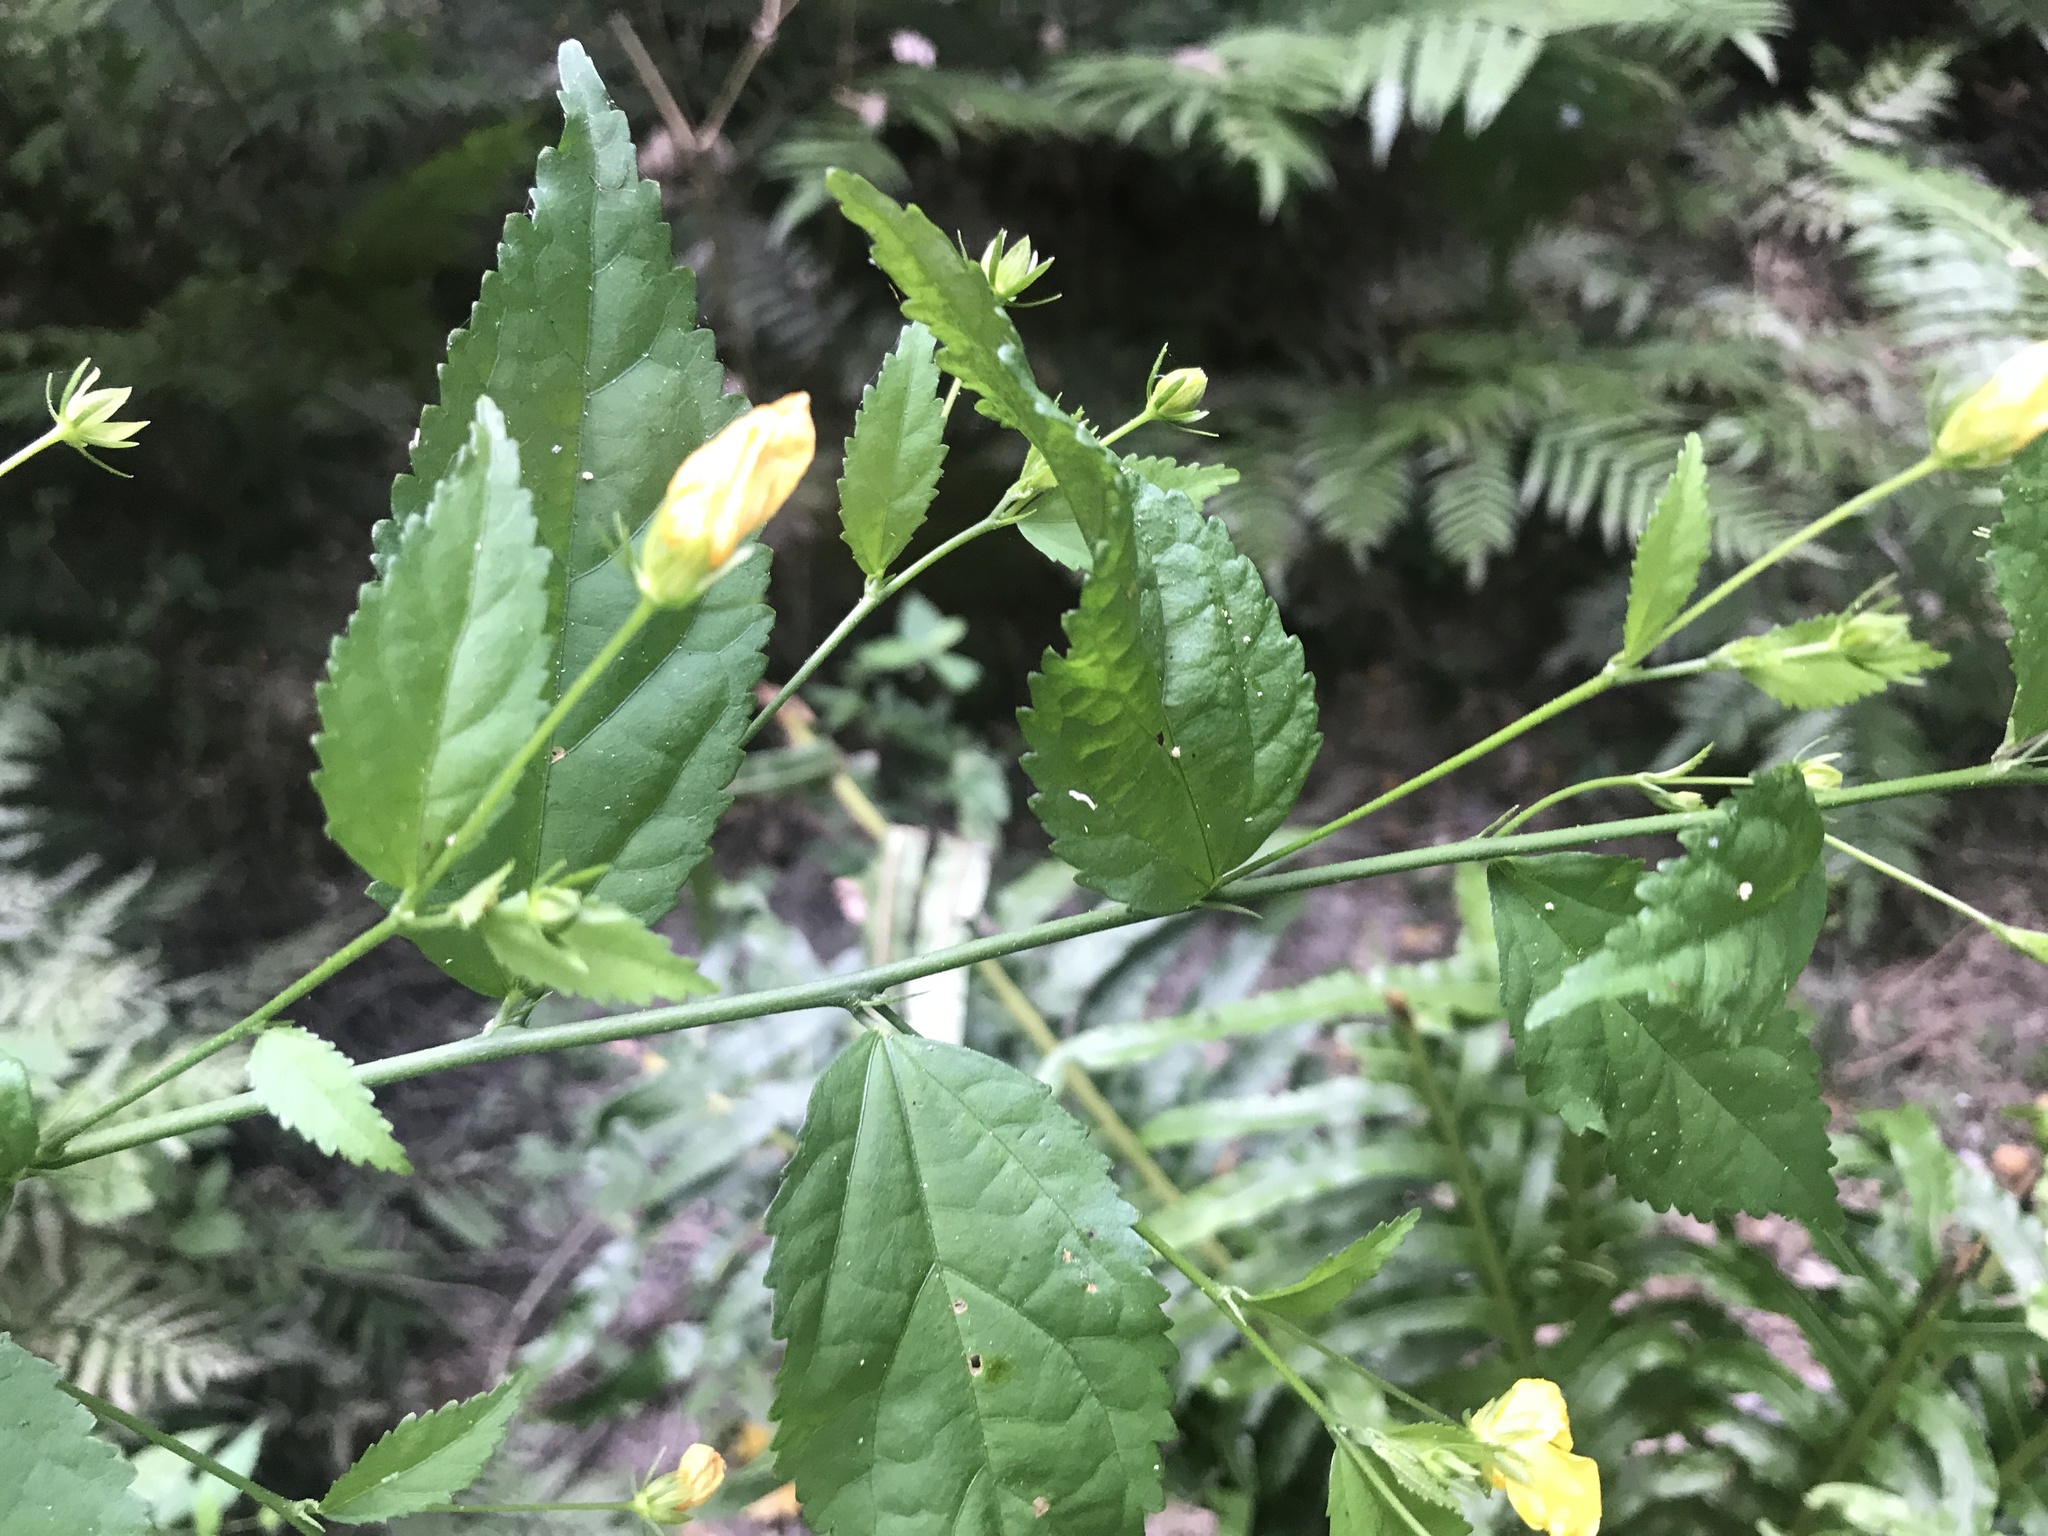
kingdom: Plantae
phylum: Tracheophyta
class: Magnoliopsida
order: Malvales
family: Malvaceae
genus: Pavonia
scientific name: Pavonia sepium
